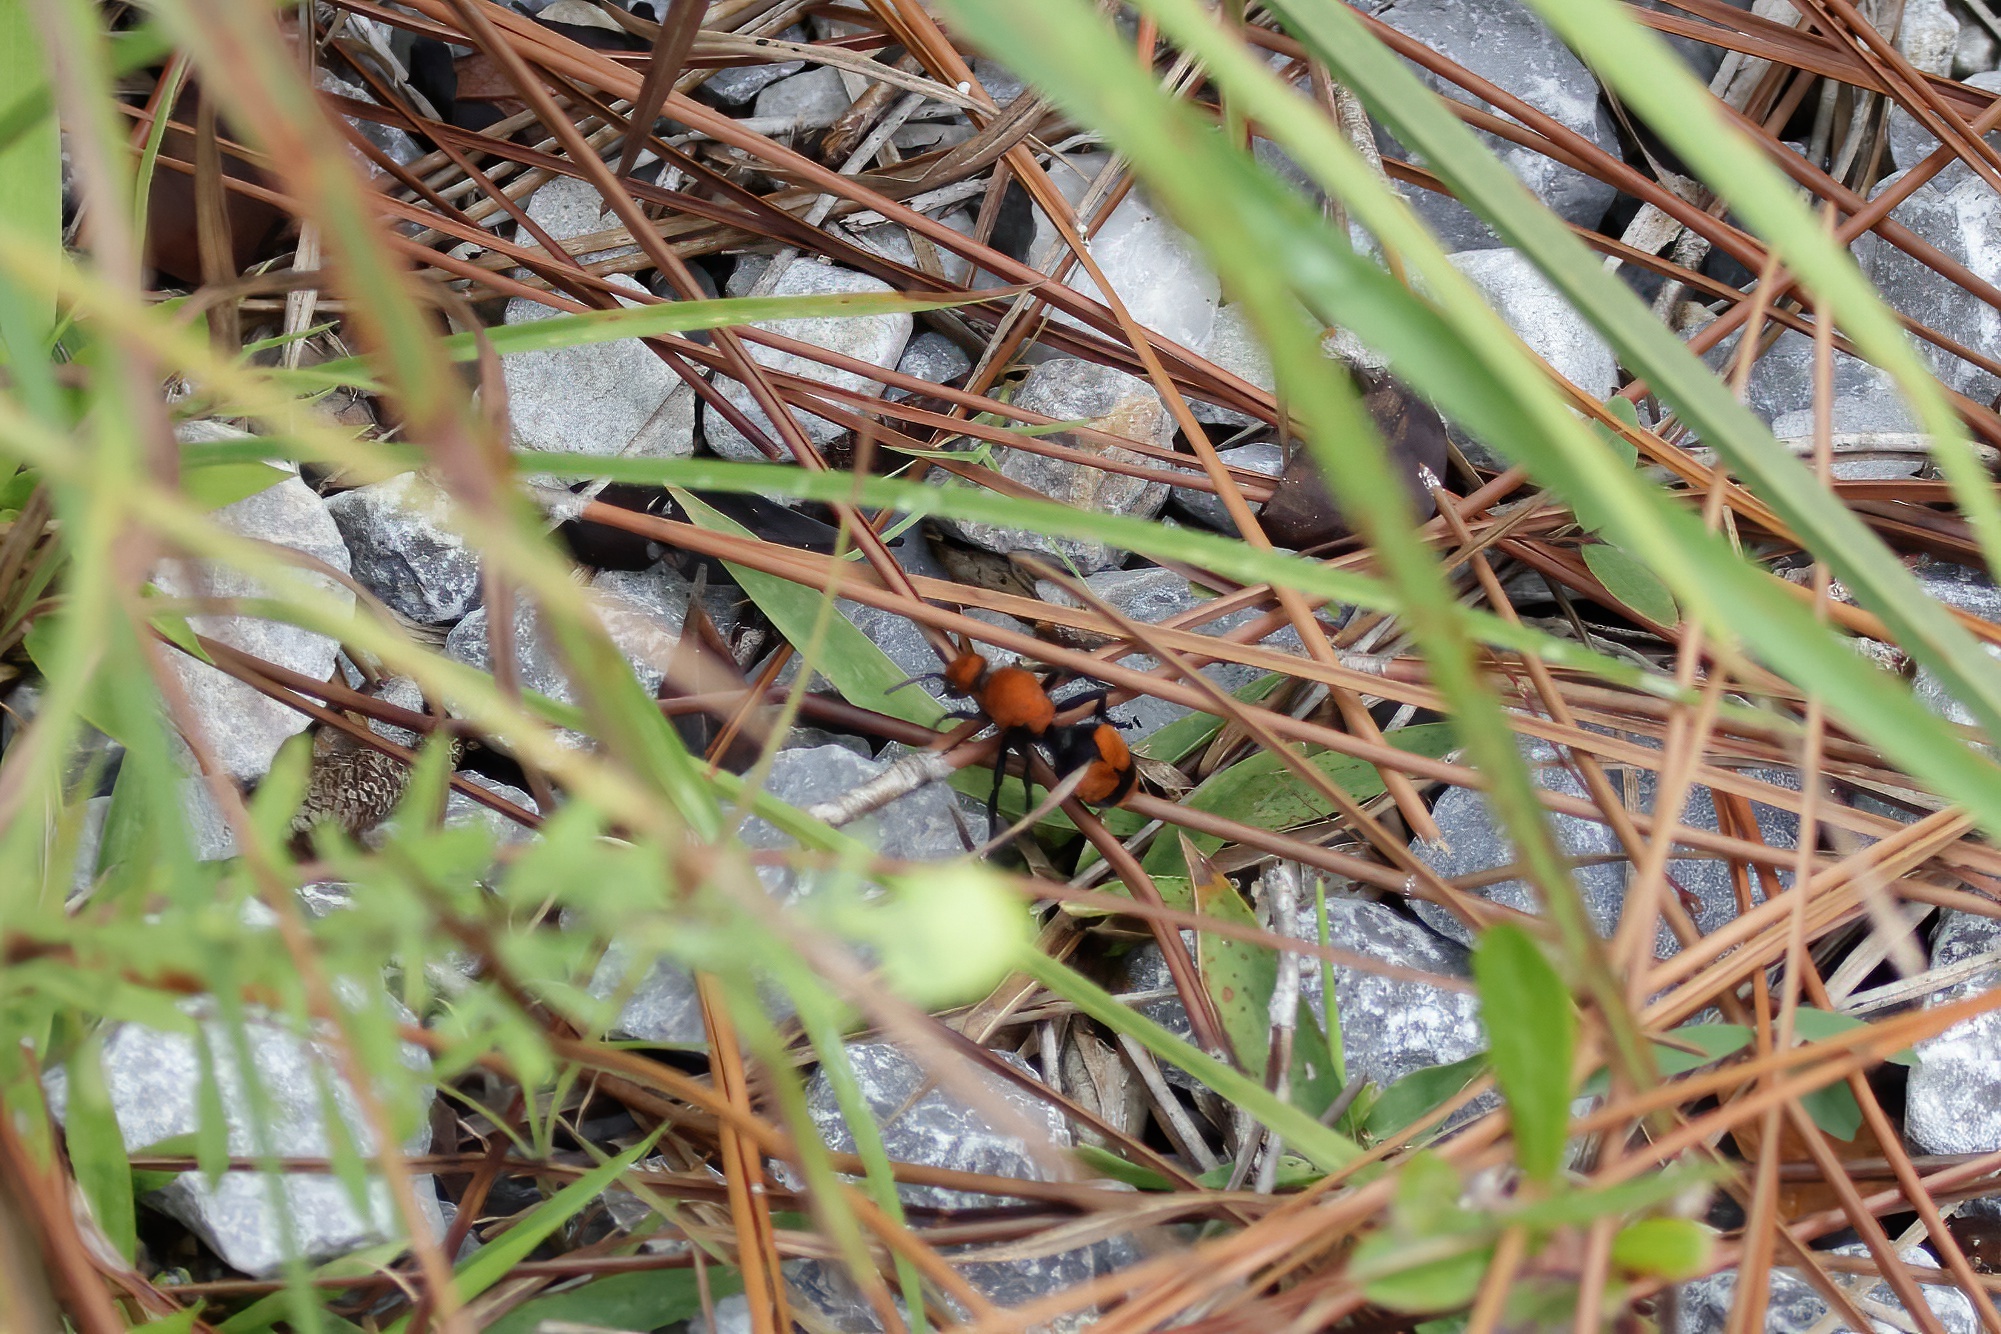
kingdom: Animalia
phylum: Arthropoda
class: Insecta
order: Hymenoptera
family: Mutillidae
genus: Dasymutilla
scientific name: Dasymutilla occidentalis
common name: Common eastern velvet ant
